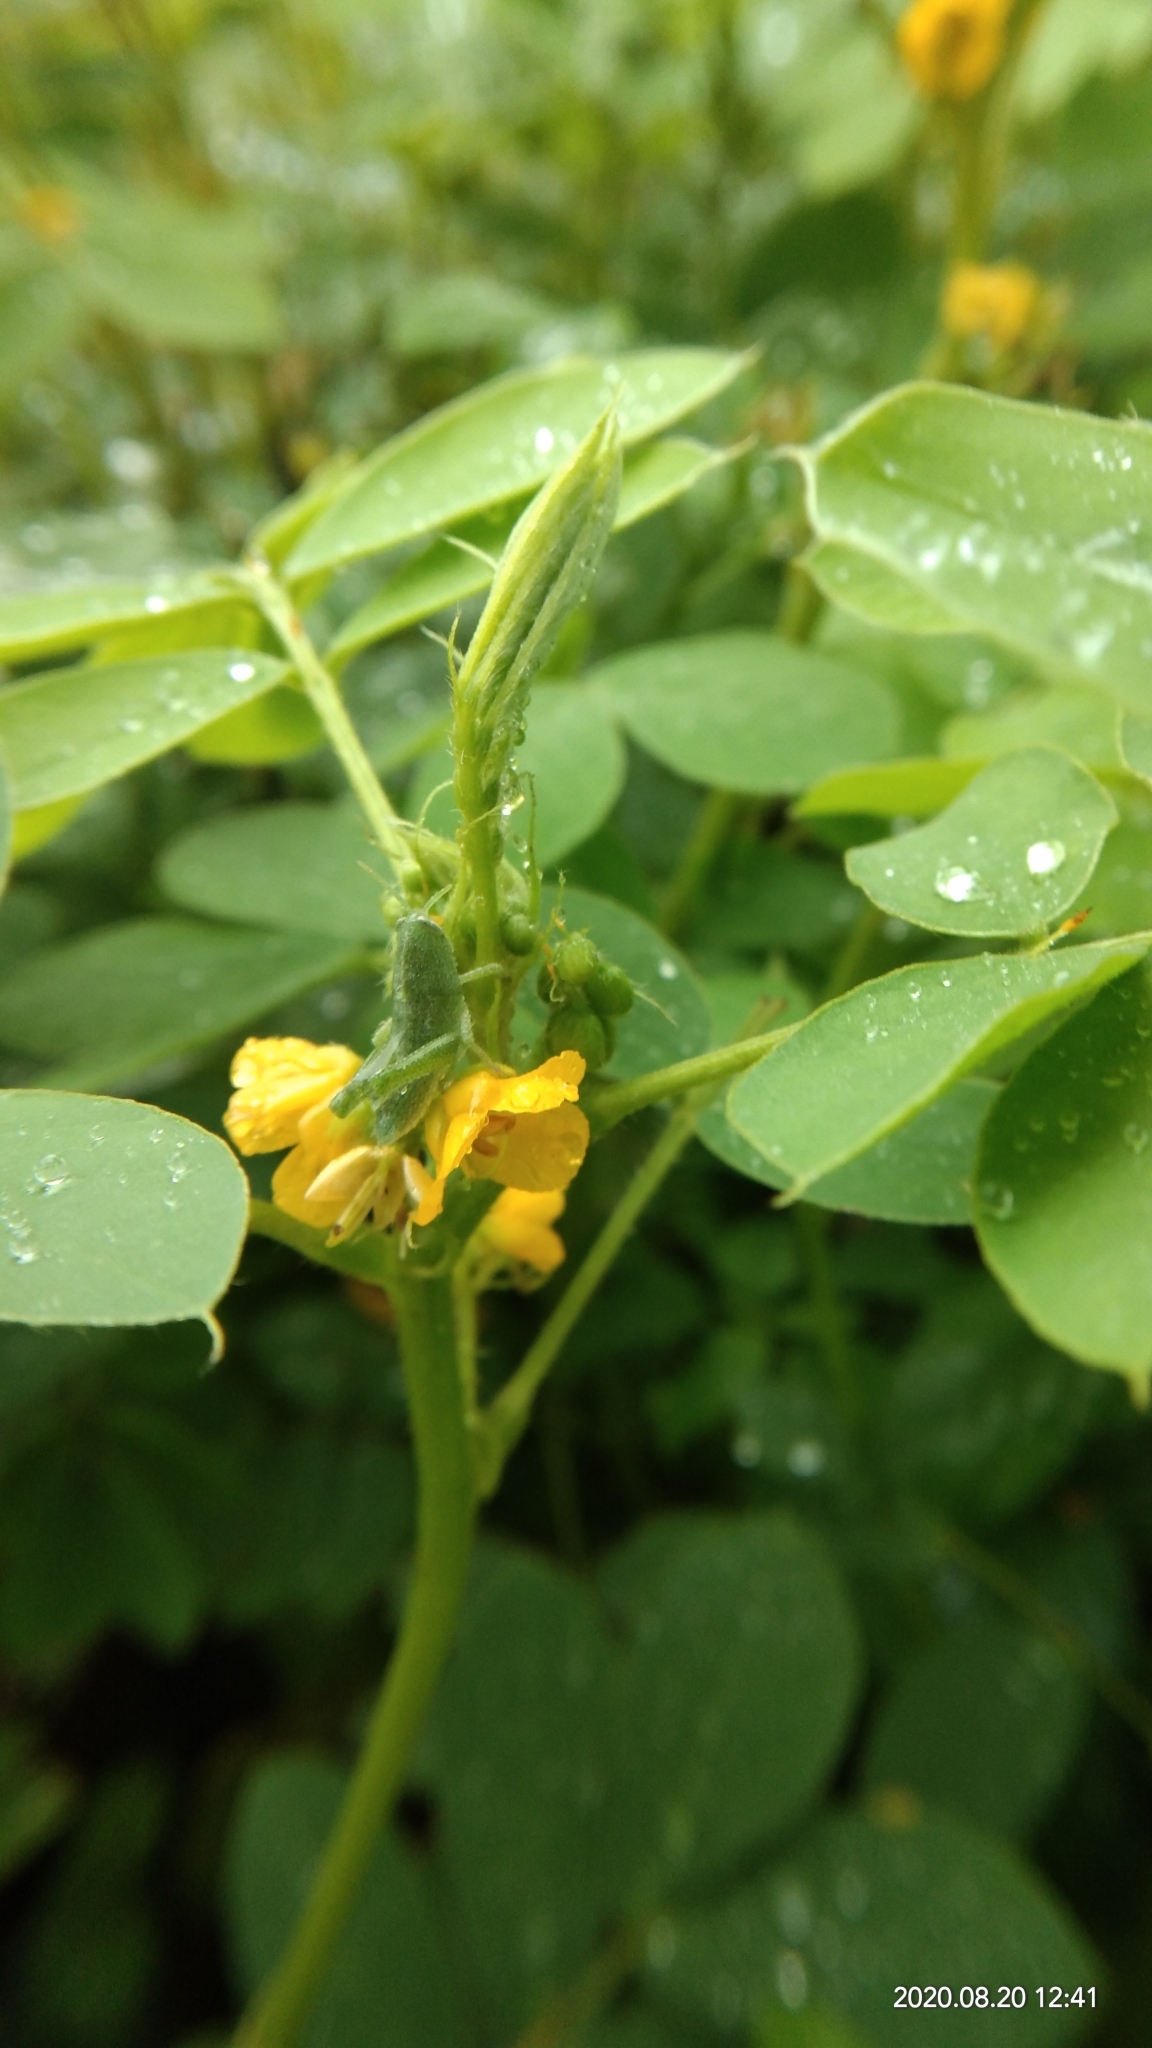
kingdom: Plantae
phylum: Tracheophyta
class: Magnoliopsida
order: Fabales
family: Fabaceae
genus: Senna
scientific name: Senna uniflora
